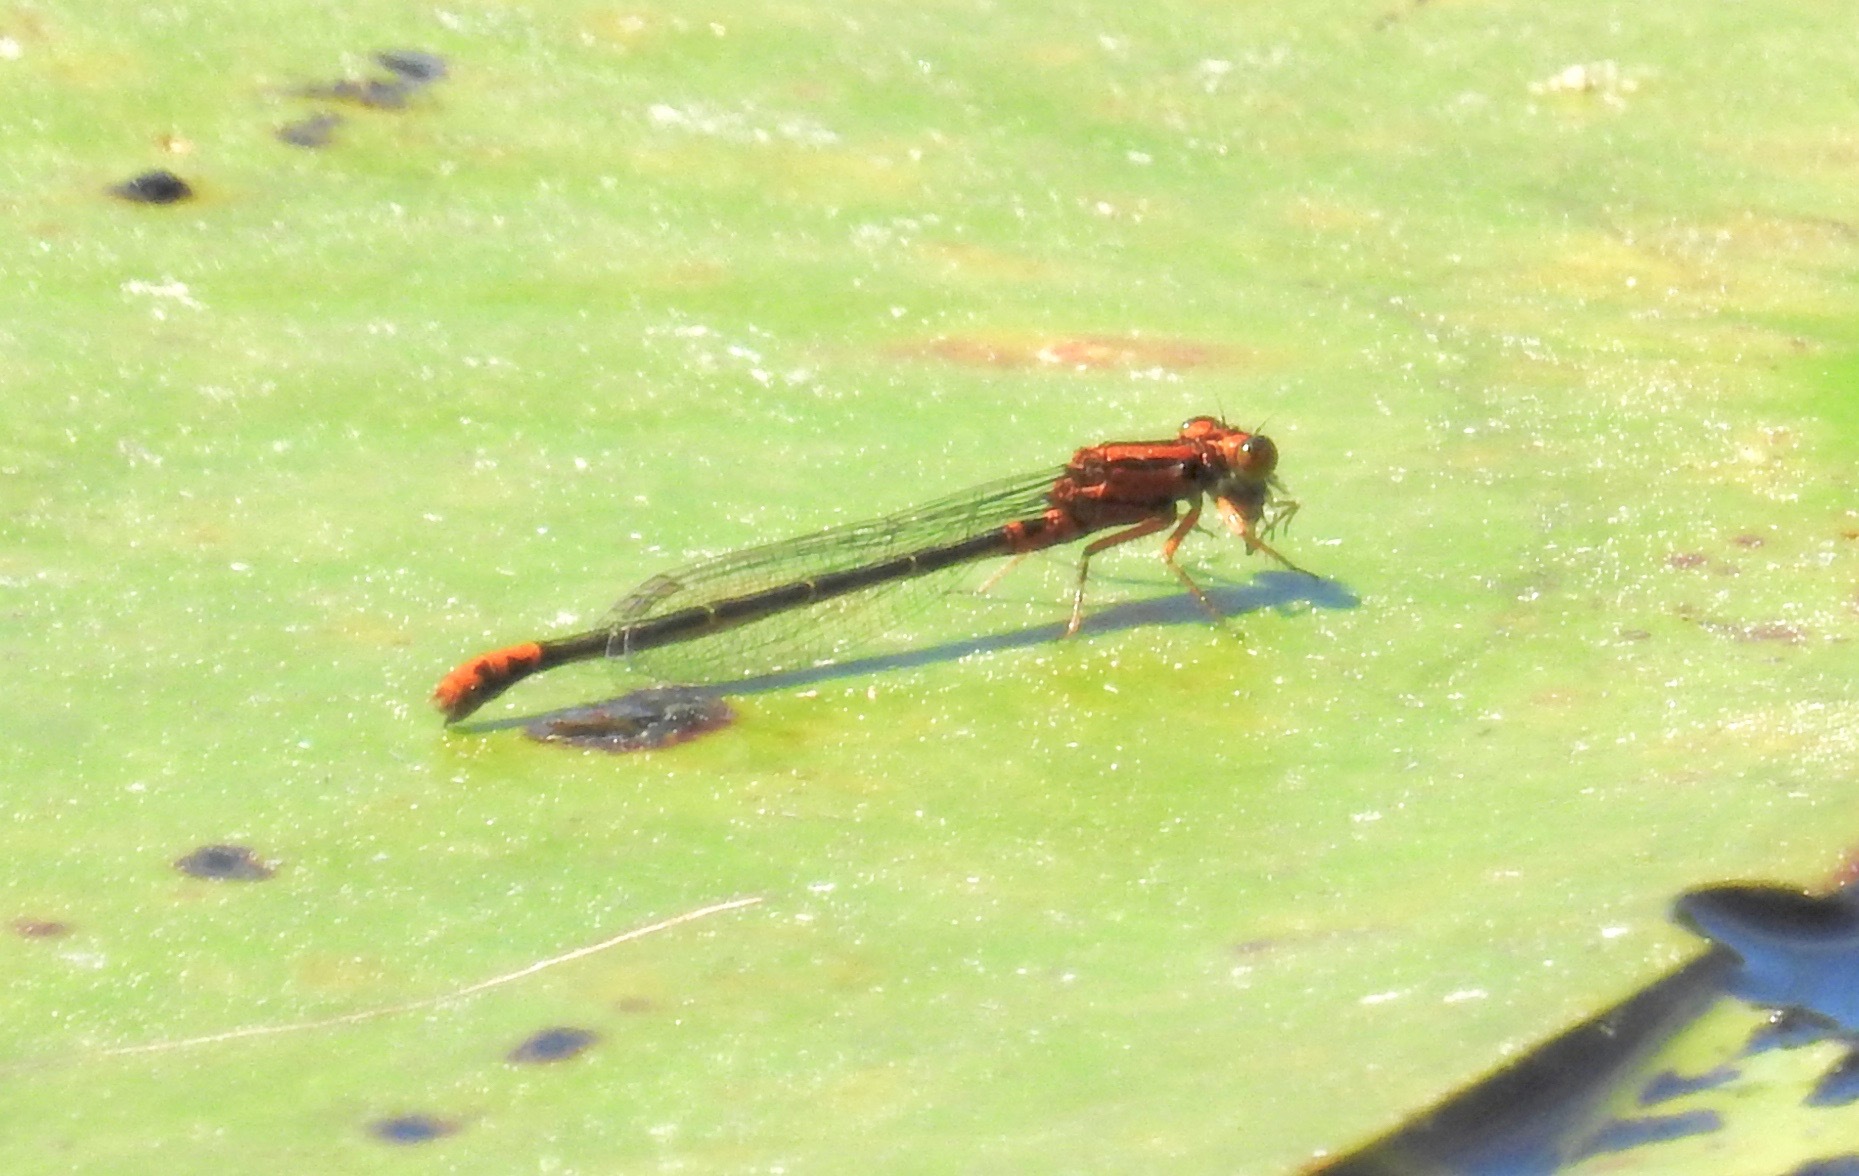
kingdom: Animalia
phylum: Arthropoda
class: Insecta
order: Odonata
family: Coenagrionidae
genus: Ischnura
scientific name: Ischnura kellicotti
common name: Lilypad forktail
